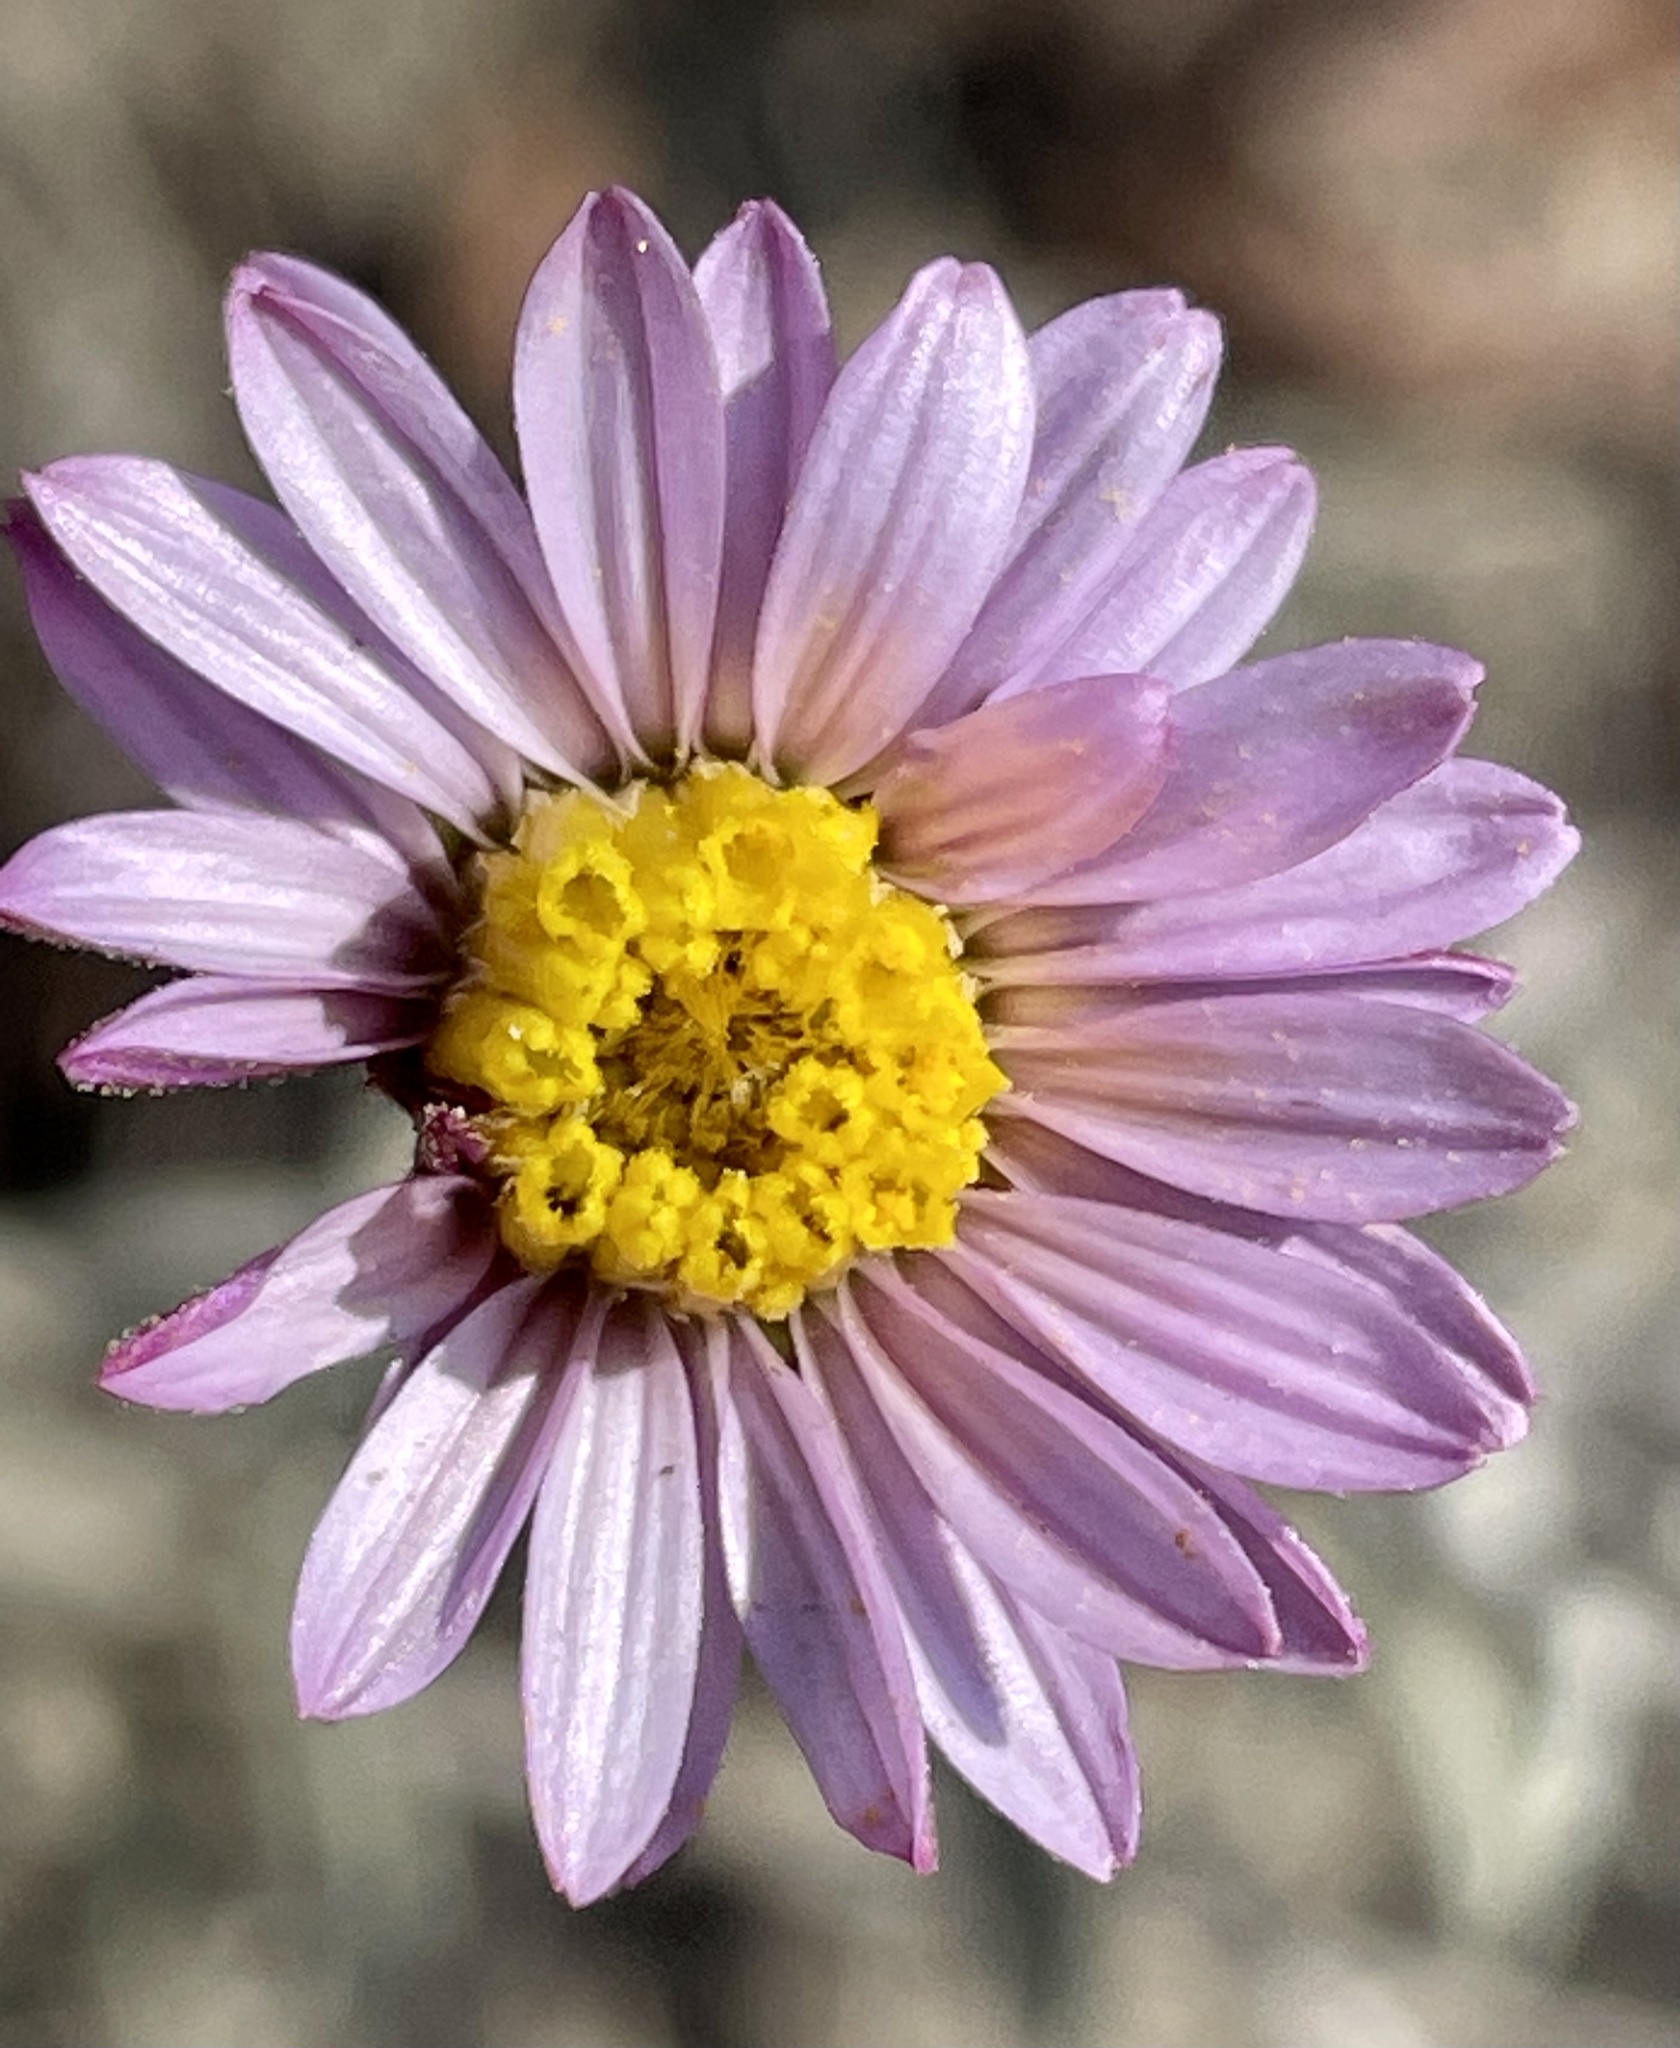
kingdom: Plantae
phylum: Tracheophyta
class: Magnoliopsida
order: Asterales
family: Asteraceae
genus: Corethrogyne
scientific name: Corethrogyne filaginifolia
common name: Sand-aster
